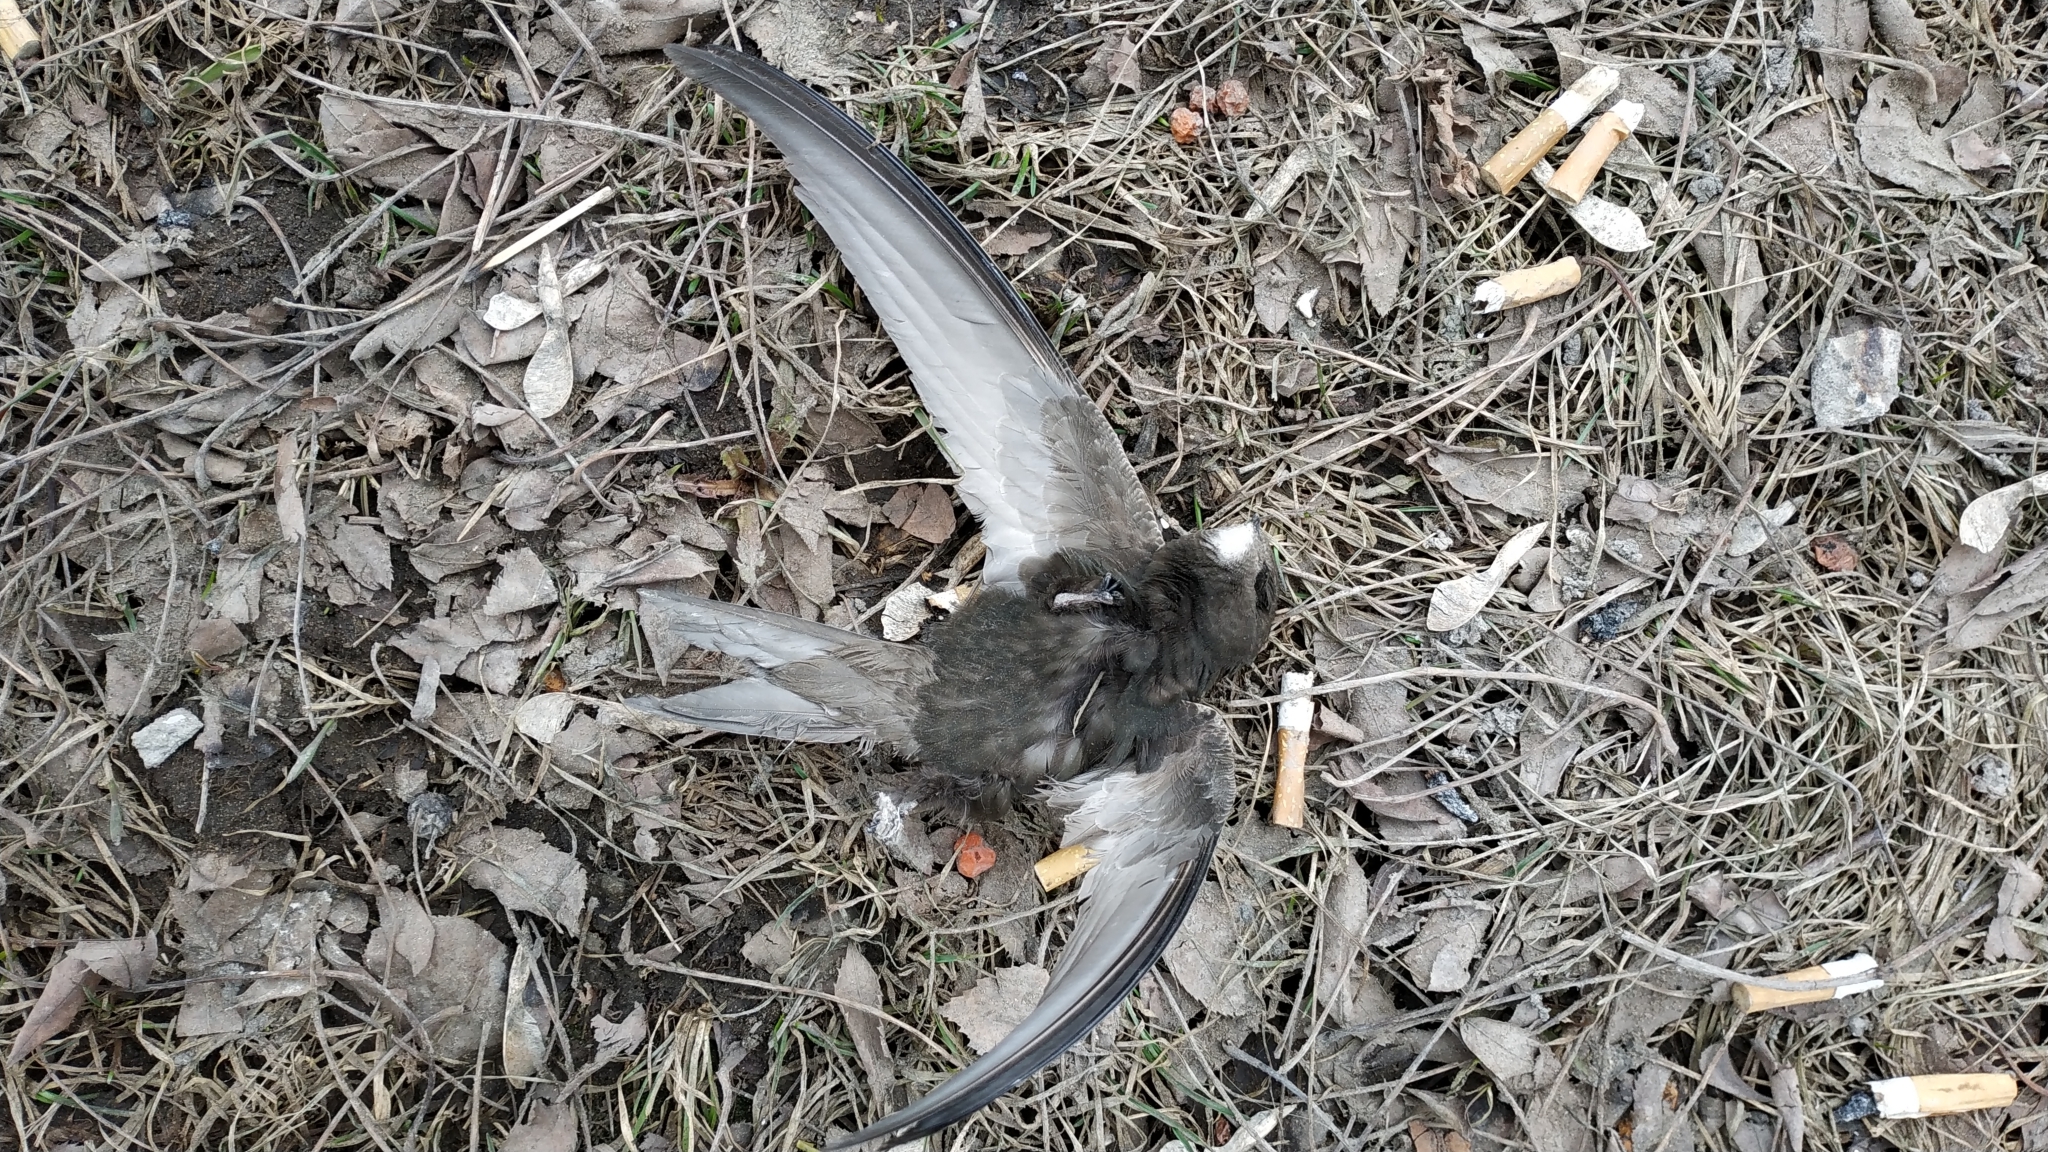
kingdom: Animalia
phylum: Chordata
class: Aves
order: Apodiformes
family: Apodidae
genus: Apus
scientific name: Apus apus
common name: Common swift
